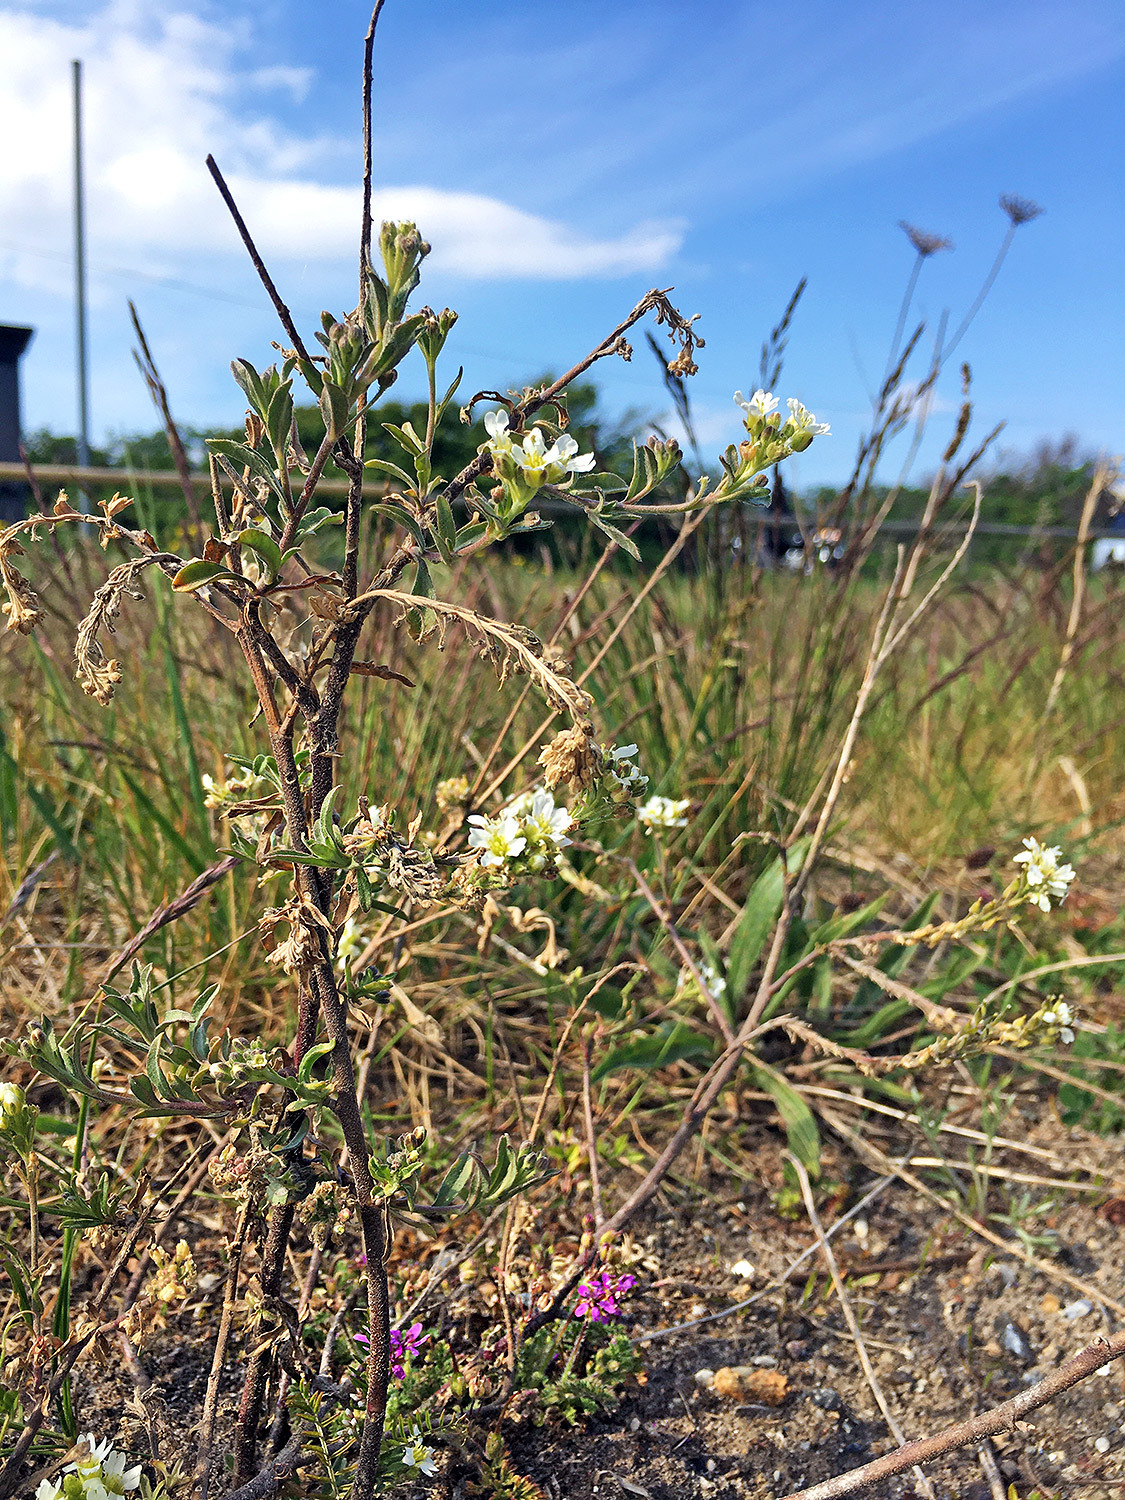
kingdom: Plantae
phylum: Tracheophyta
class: Magnoliopsida
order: Brassicales
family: Brassicaceae
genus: Berteroa
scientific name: Berteroa incana
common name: Hoary alison
